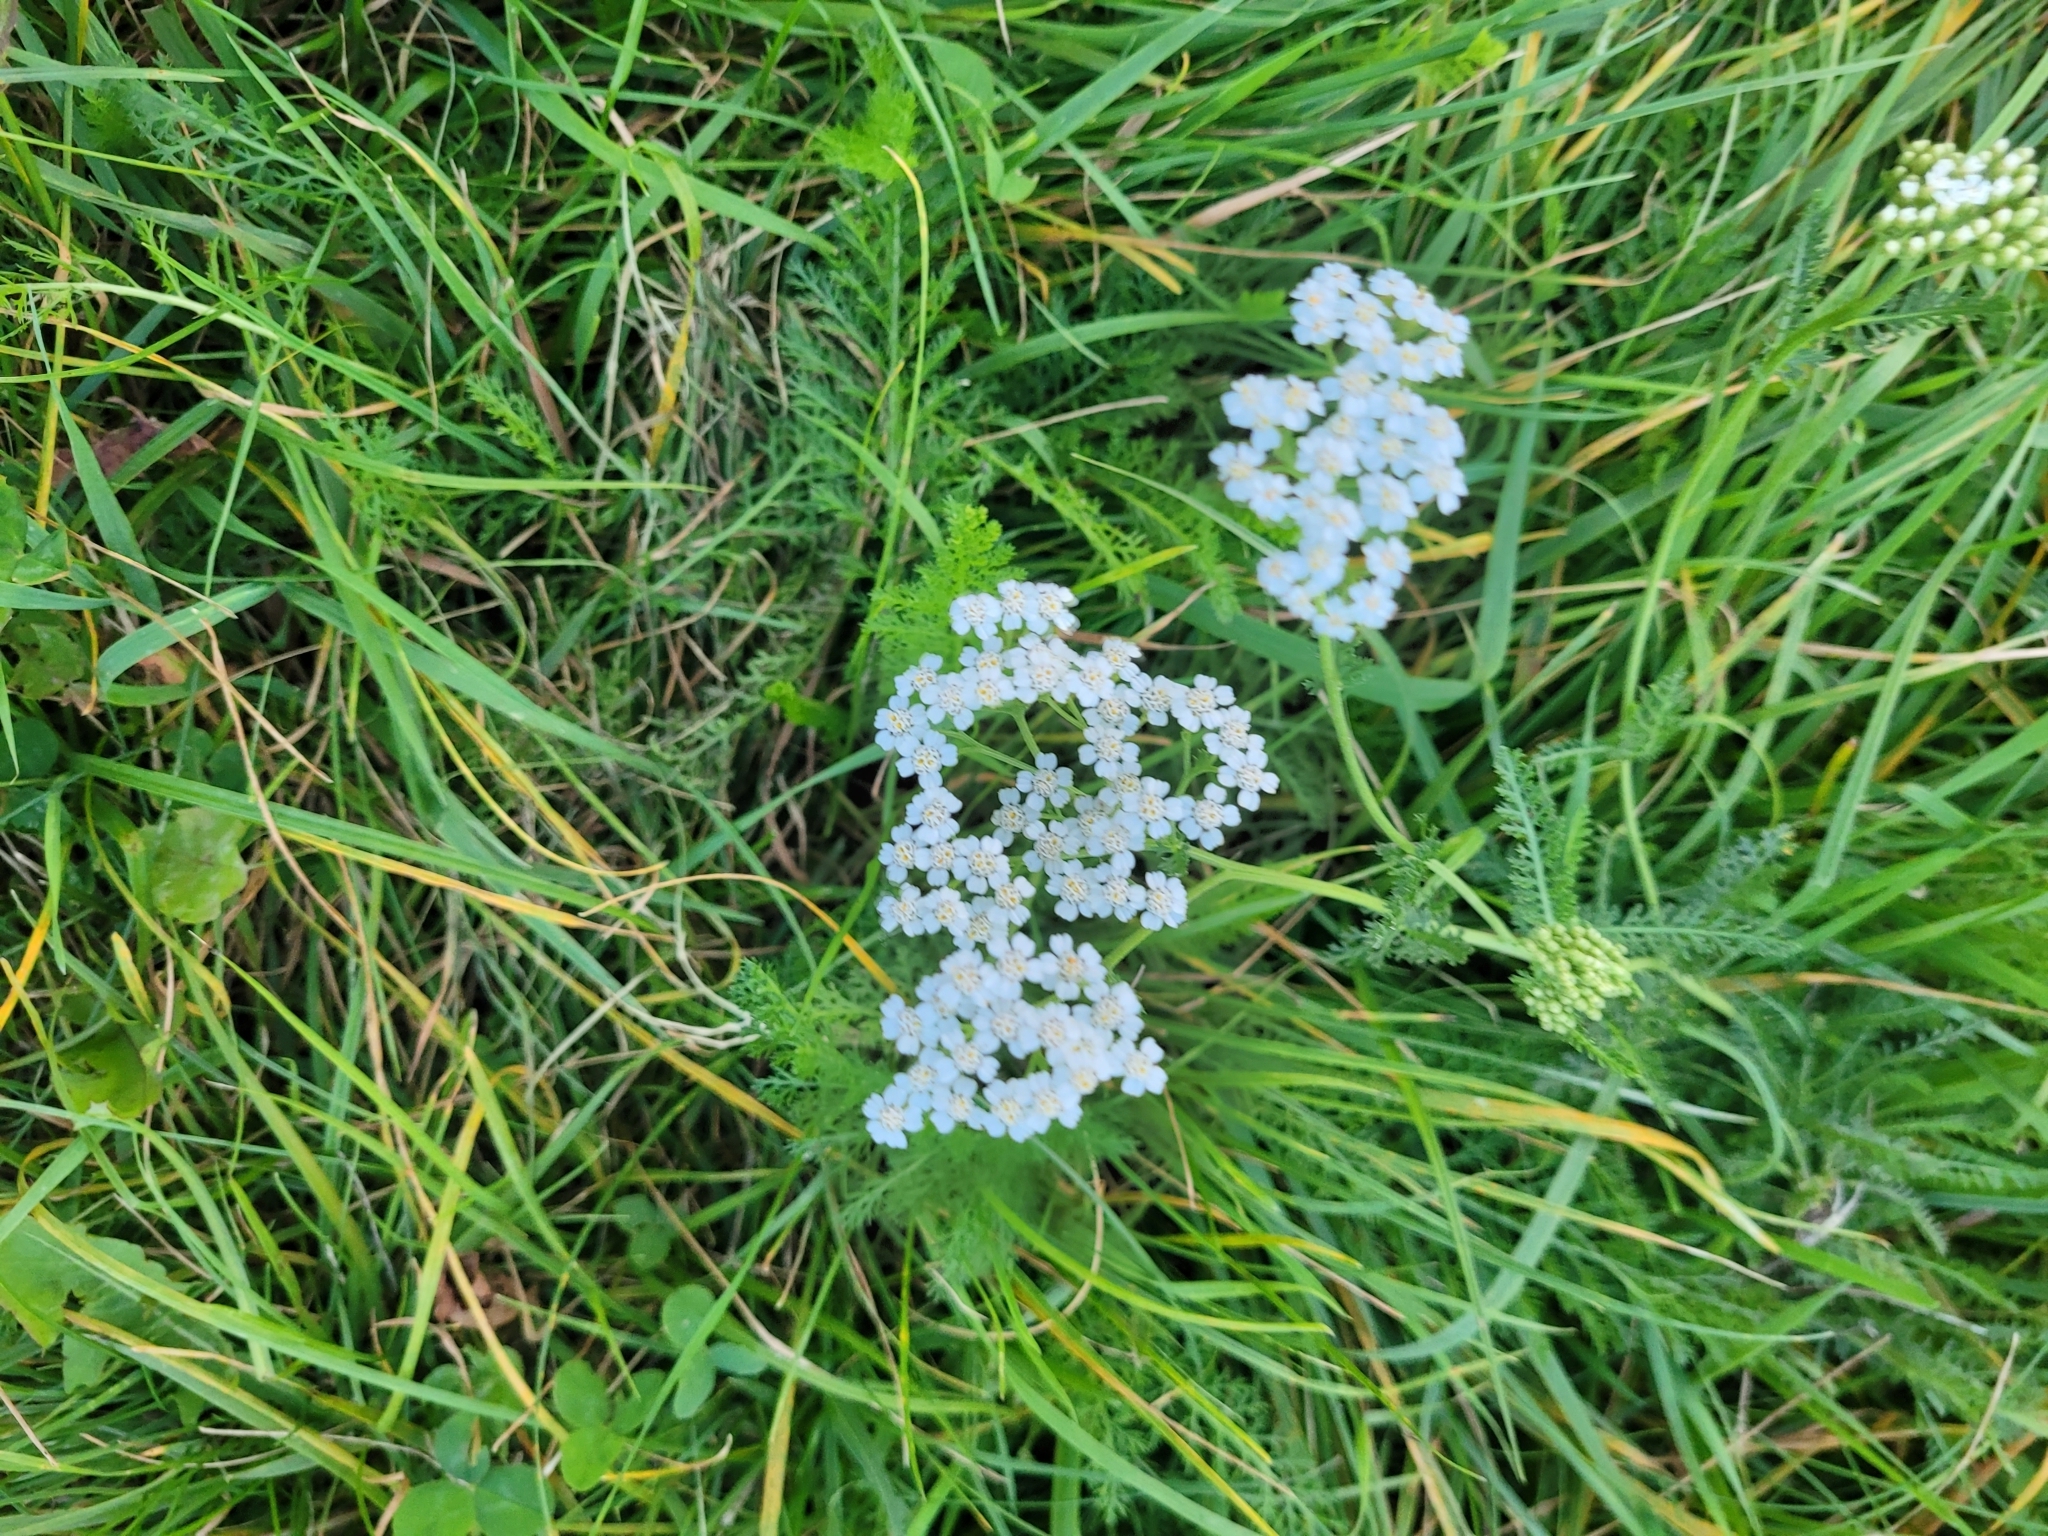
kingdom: Plantae
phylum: Tracheophyta
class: Magnoliopsida
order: Asterales
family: Asteraceae
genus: Achillea
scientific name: Achillea millefolium
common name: Yarrow
